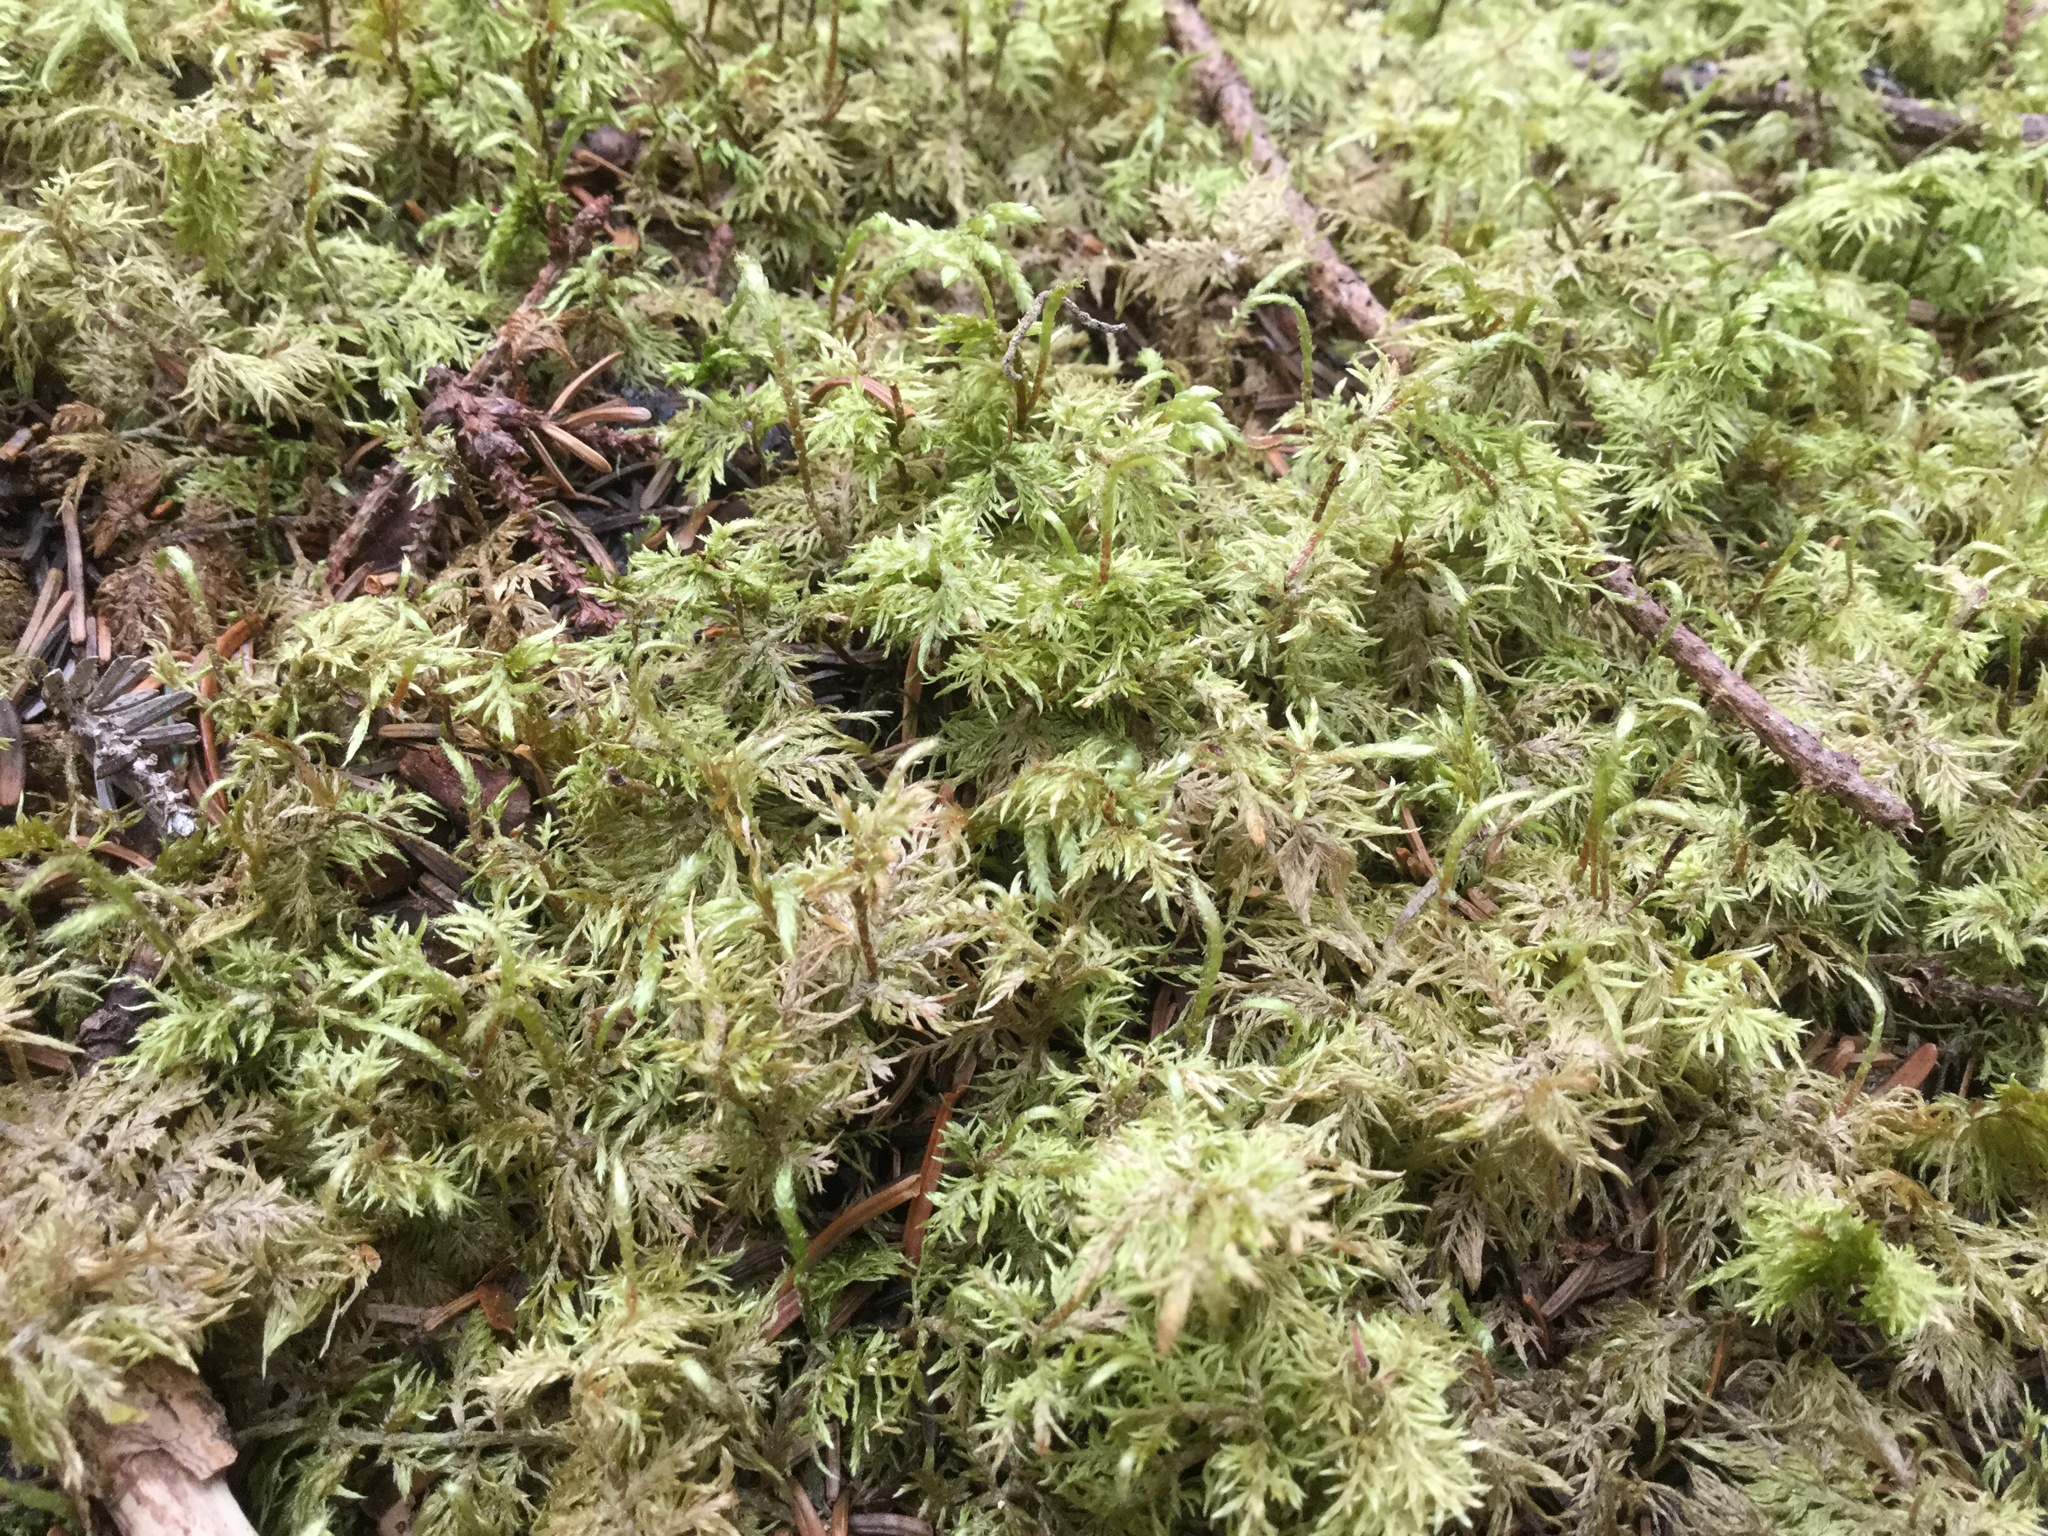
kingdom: Plantae
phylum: Bryophyta
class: Bryopsida
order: Hypnales
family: Hylocomiaceae
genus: Hylocomium
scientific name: Hylocomium splendens
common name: Stairstep moss
